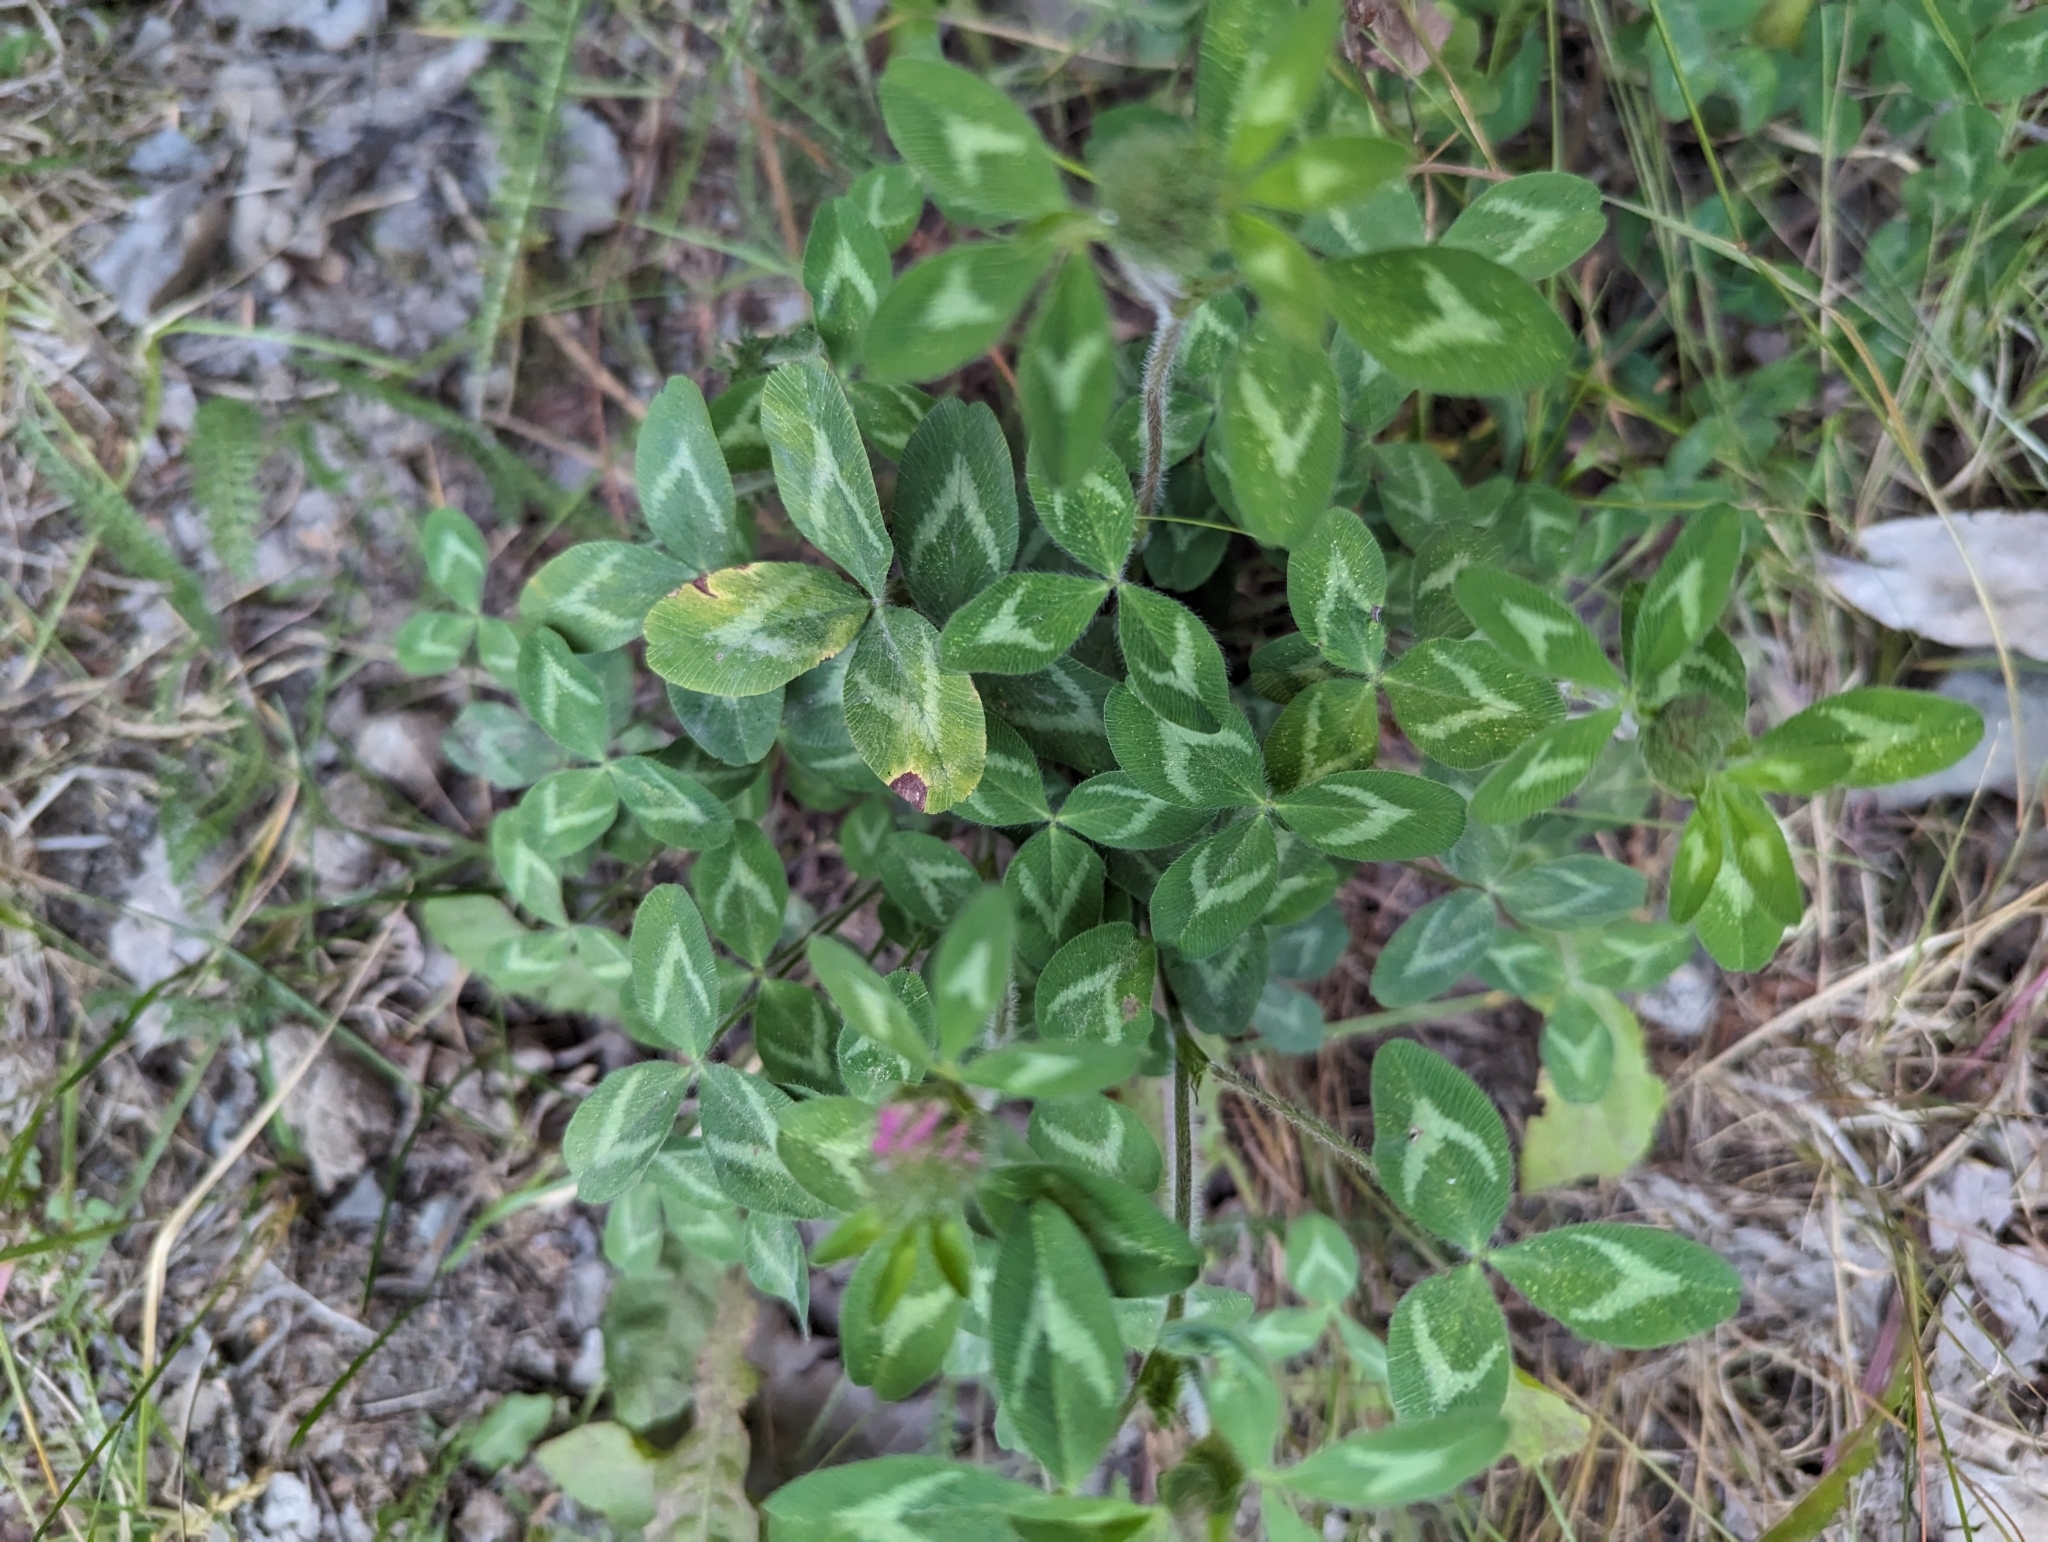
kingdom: Plantae
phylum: Tracheophyta
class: Magnoliopsida
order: Fabales
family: Fabaceae
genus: Trifolium
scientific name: Trifolium pratense
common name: Red clover
